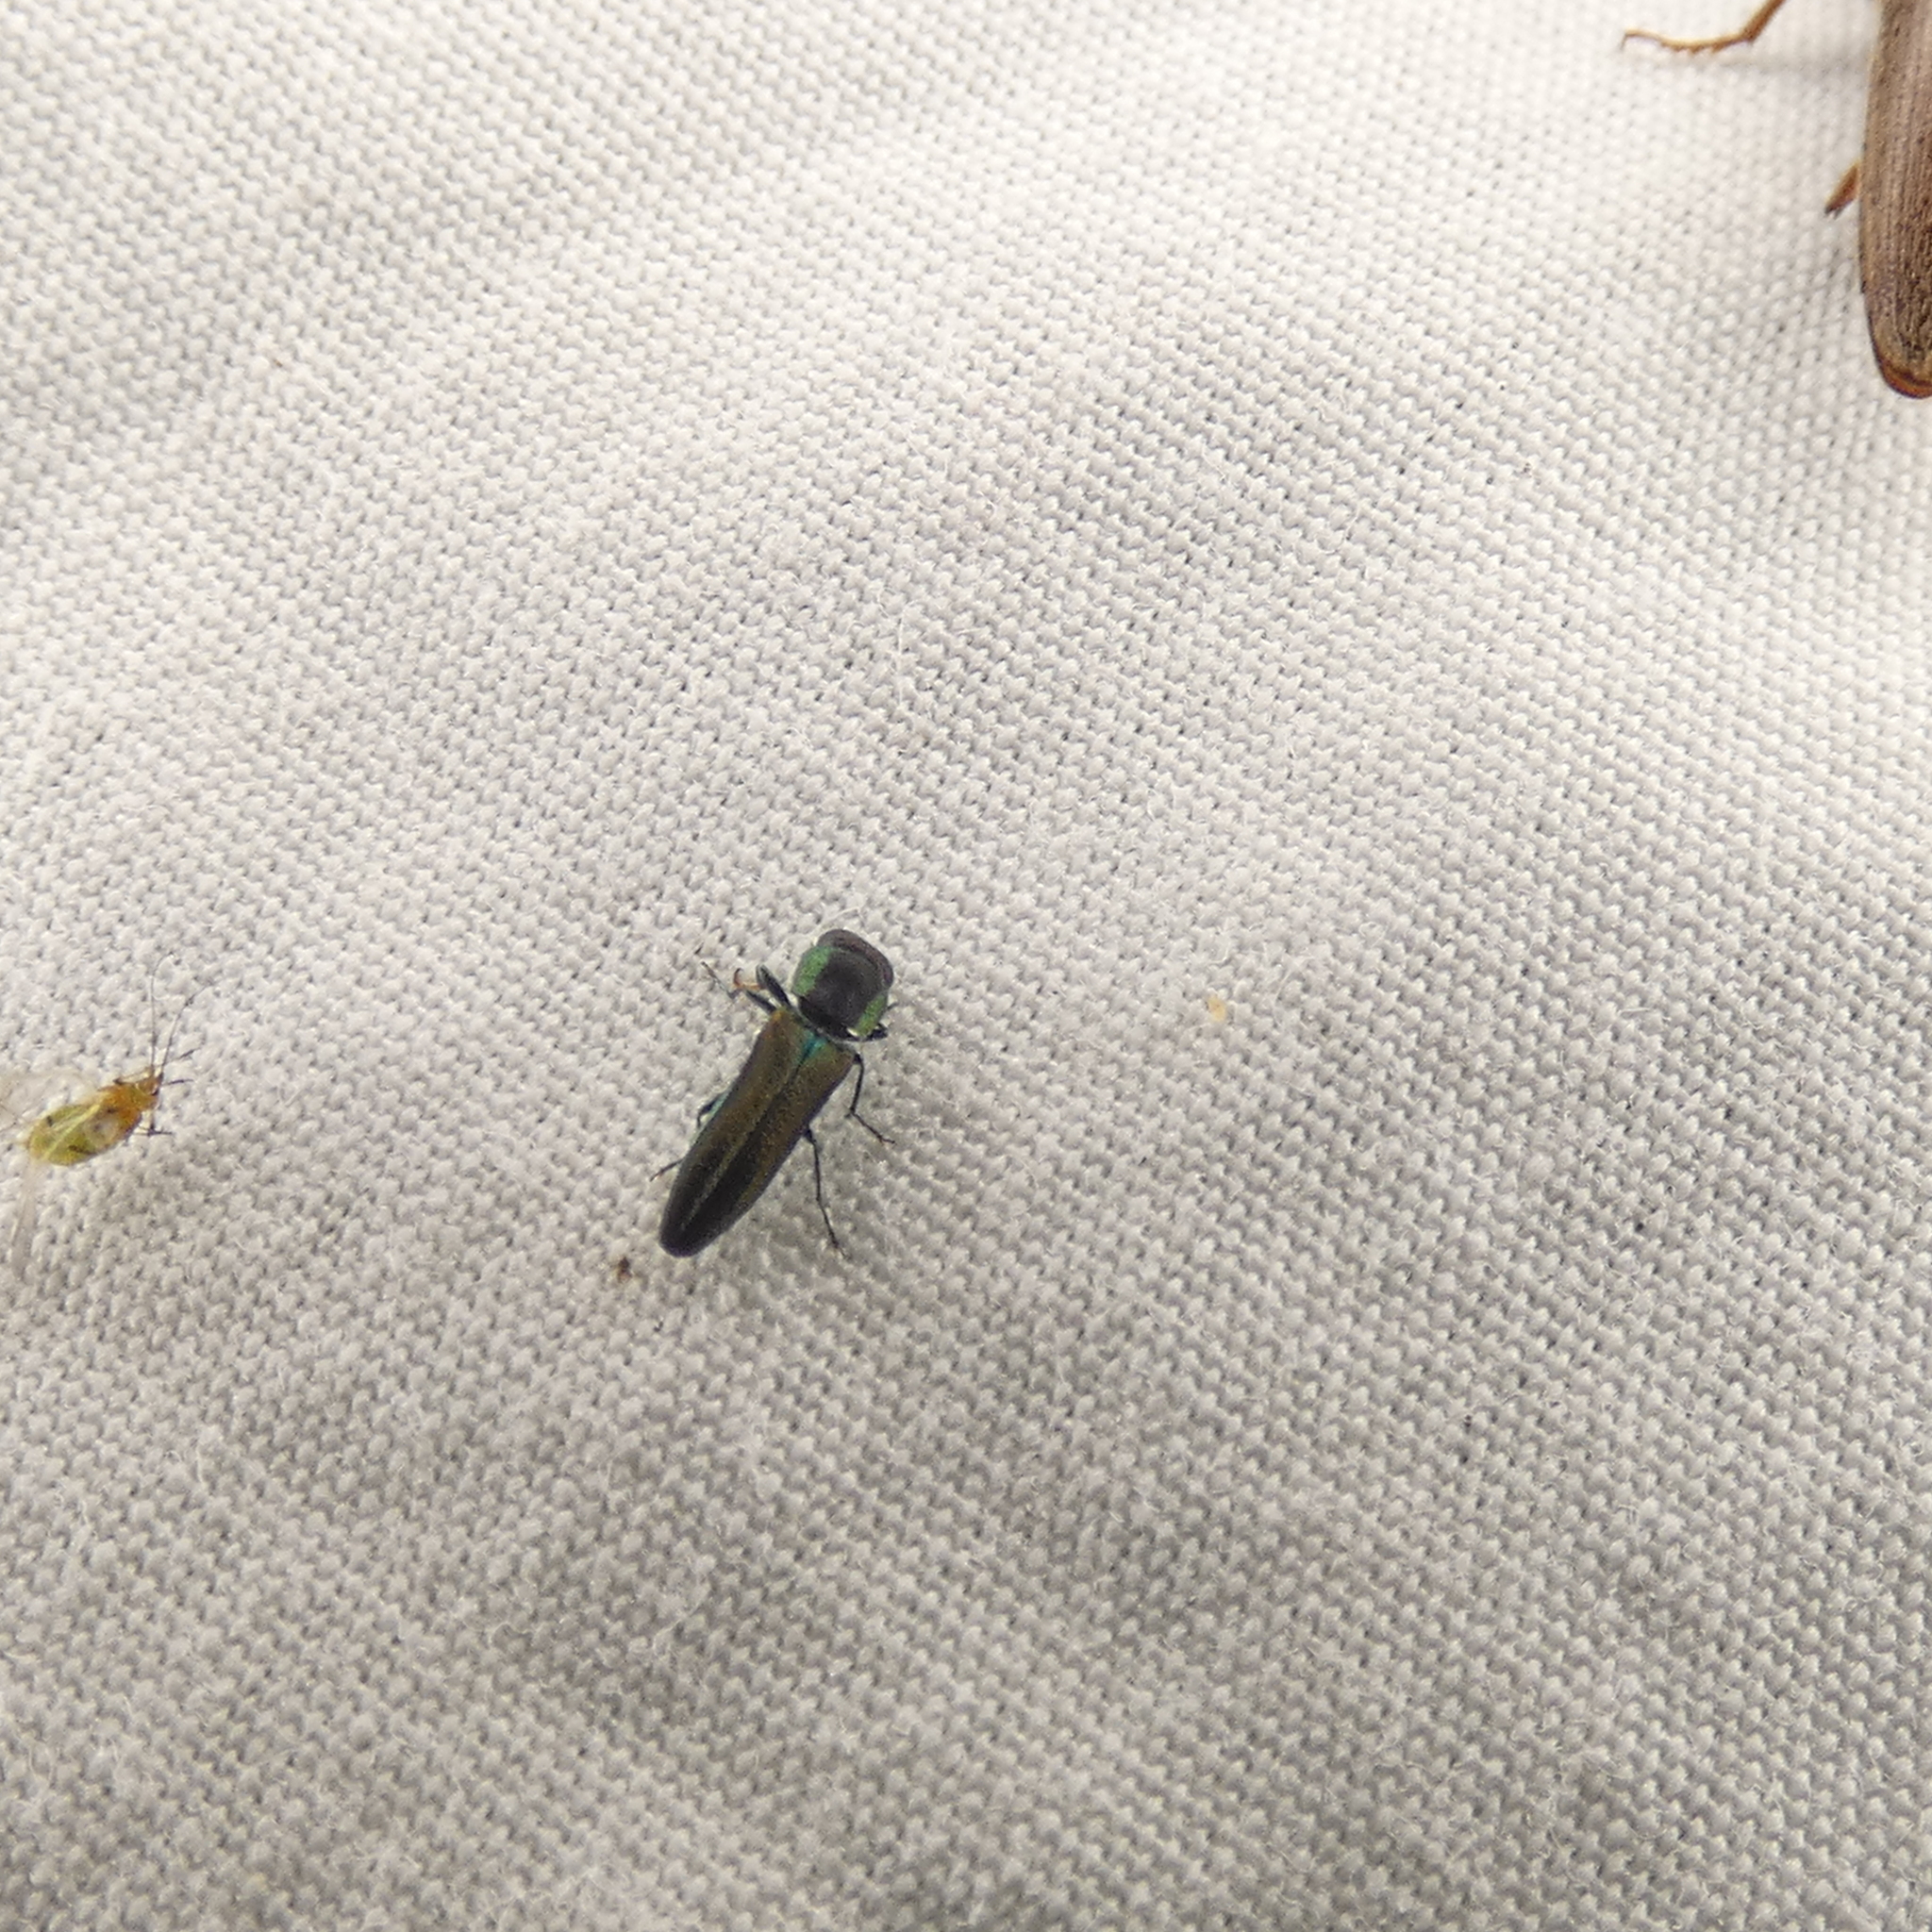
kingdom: Animalia
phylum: Arthropoda
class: Insecta
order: Coleoptera
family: Buprestidae
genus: Agrilaxia
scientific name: Agrilaxia flavimana
